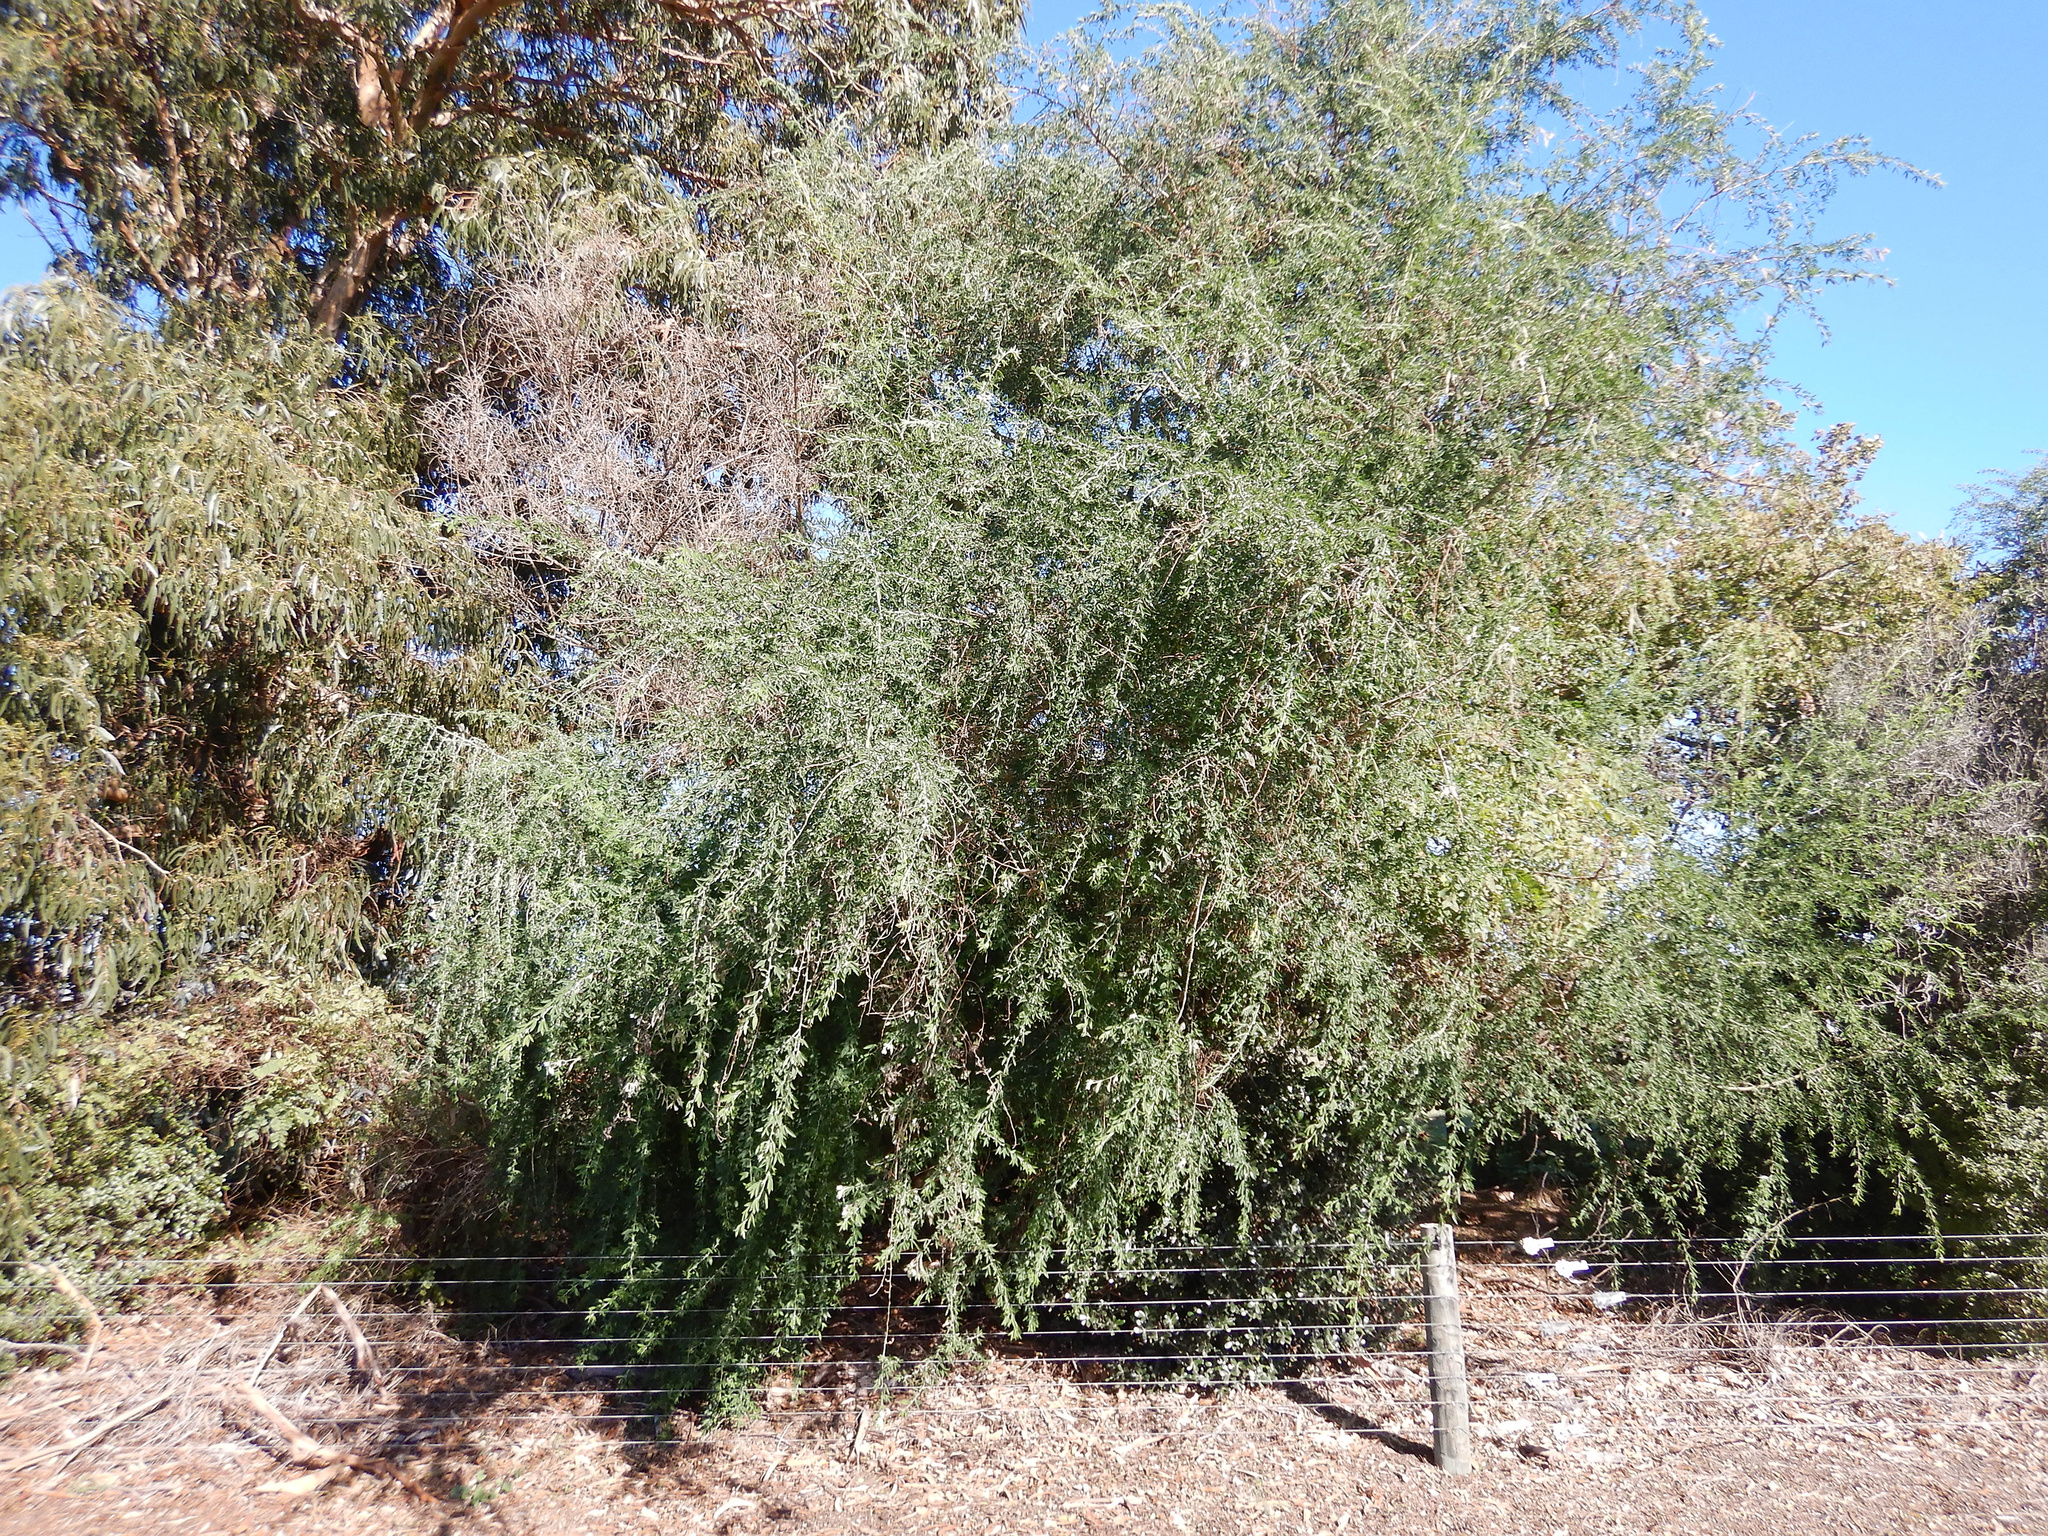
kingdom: Plantae
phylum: Tracheophyta
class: Magnoliopsida
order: Fabales
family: Fabaceae
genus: Chamaecytisus
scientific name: Chamaecytisus prolifer
